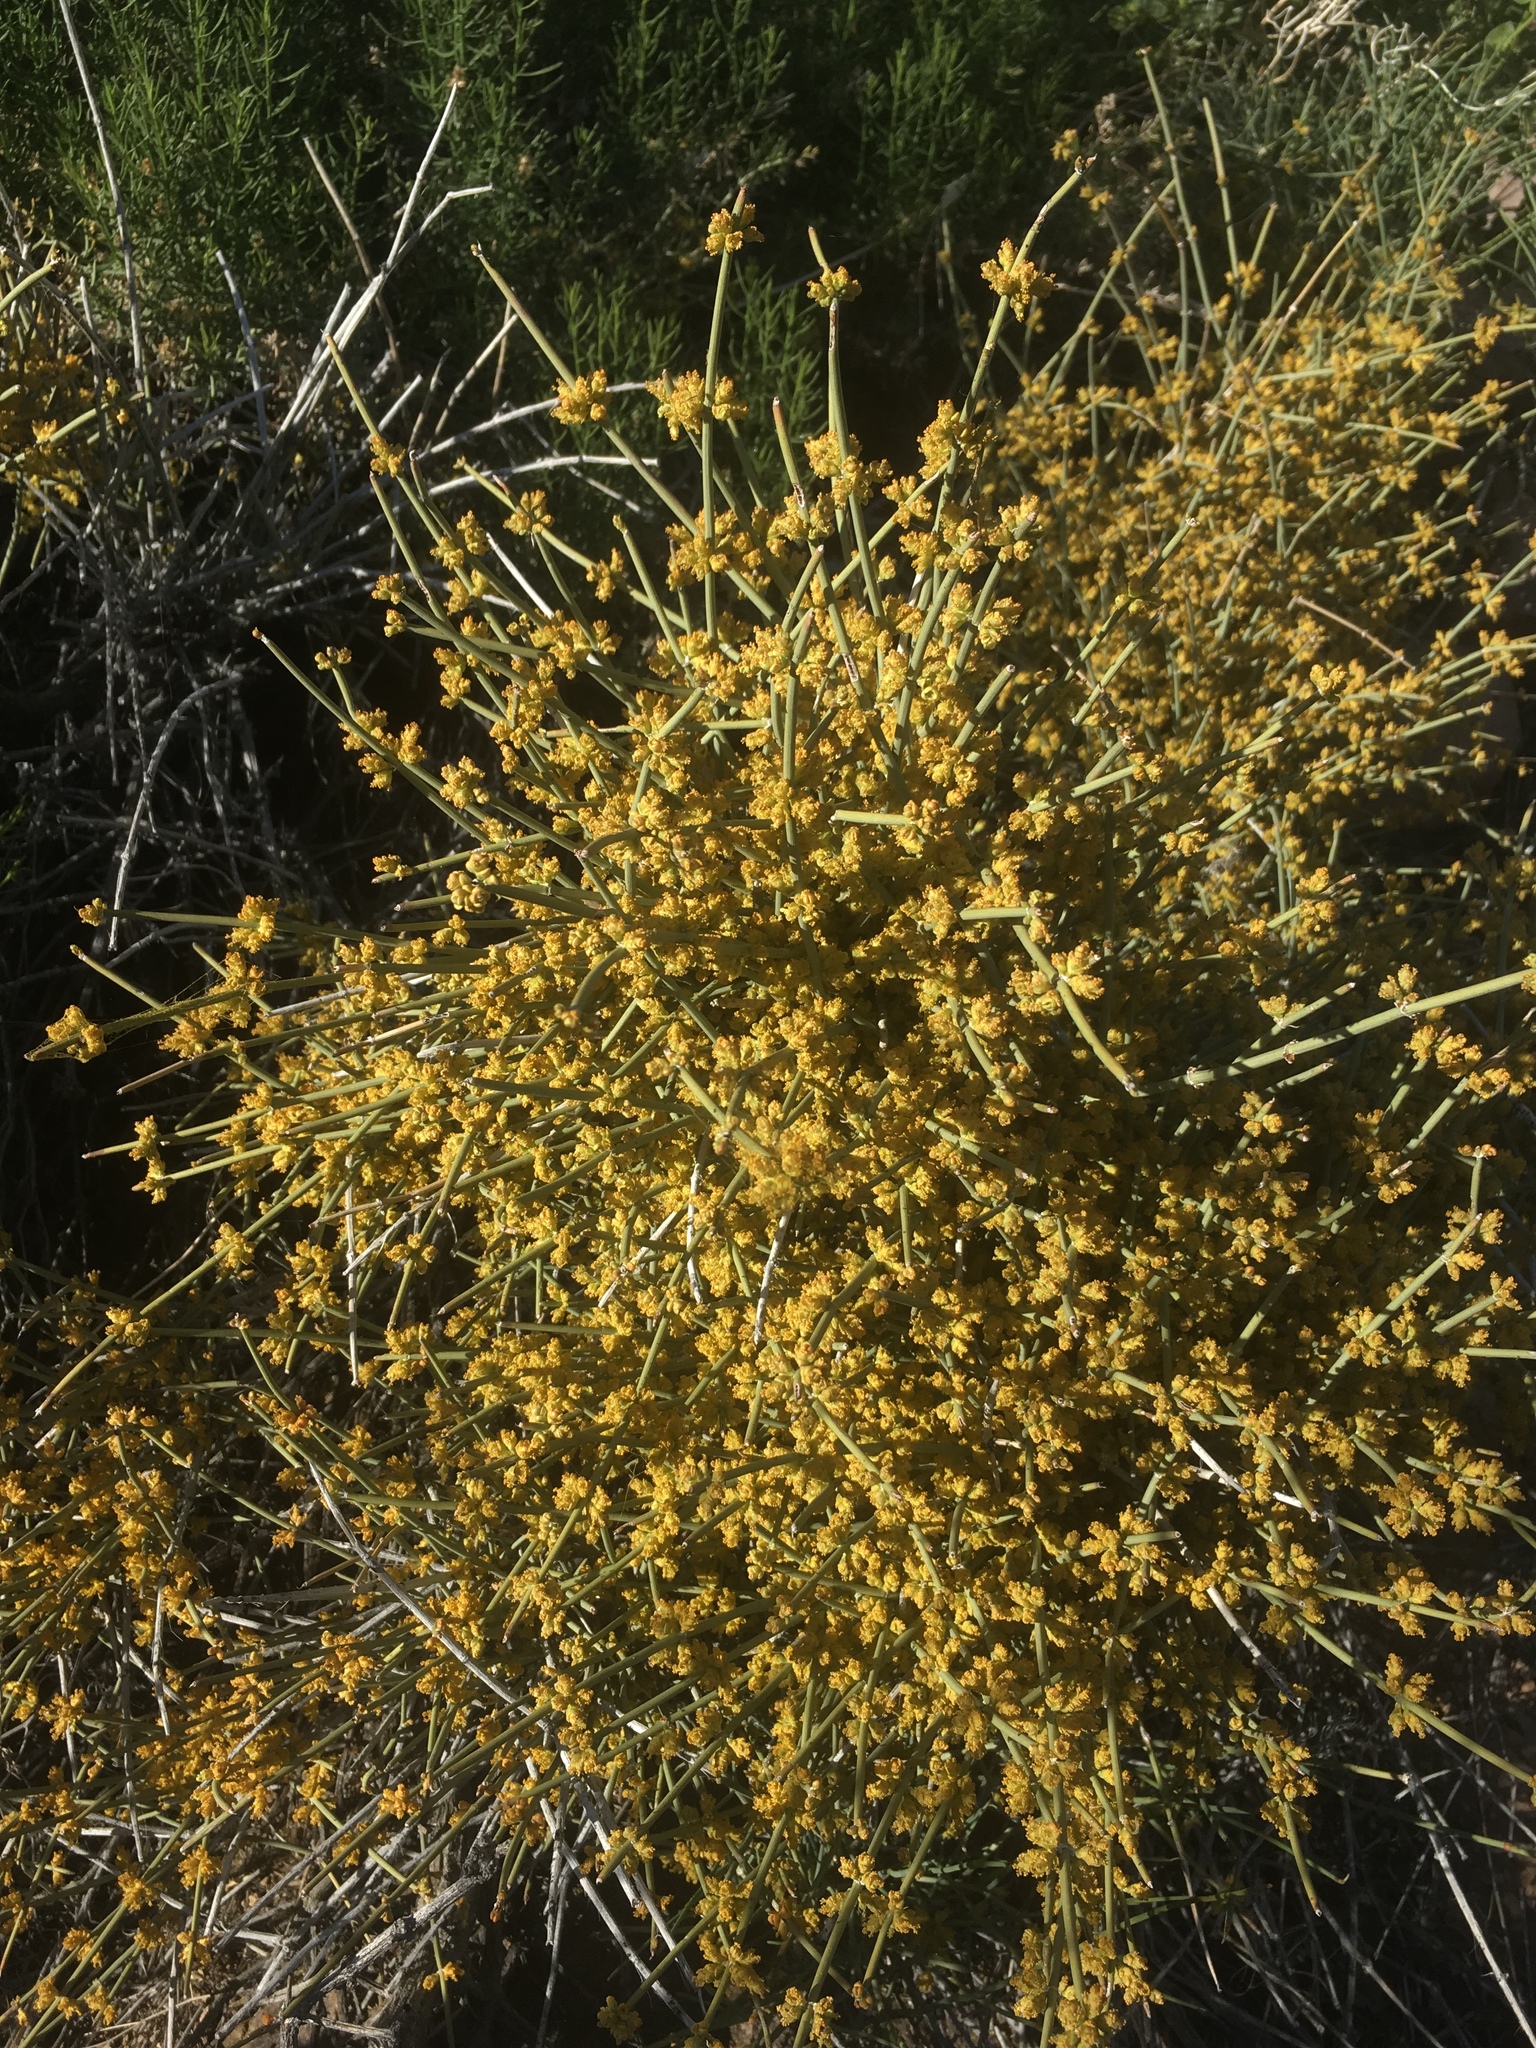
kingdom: Plantae
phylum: Tracheophyta
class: Gnetopsida
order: Ephedrales
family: Ephedraceae
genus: Ephedra
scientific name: Ephedra nevadensis
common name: Gray ephedra
